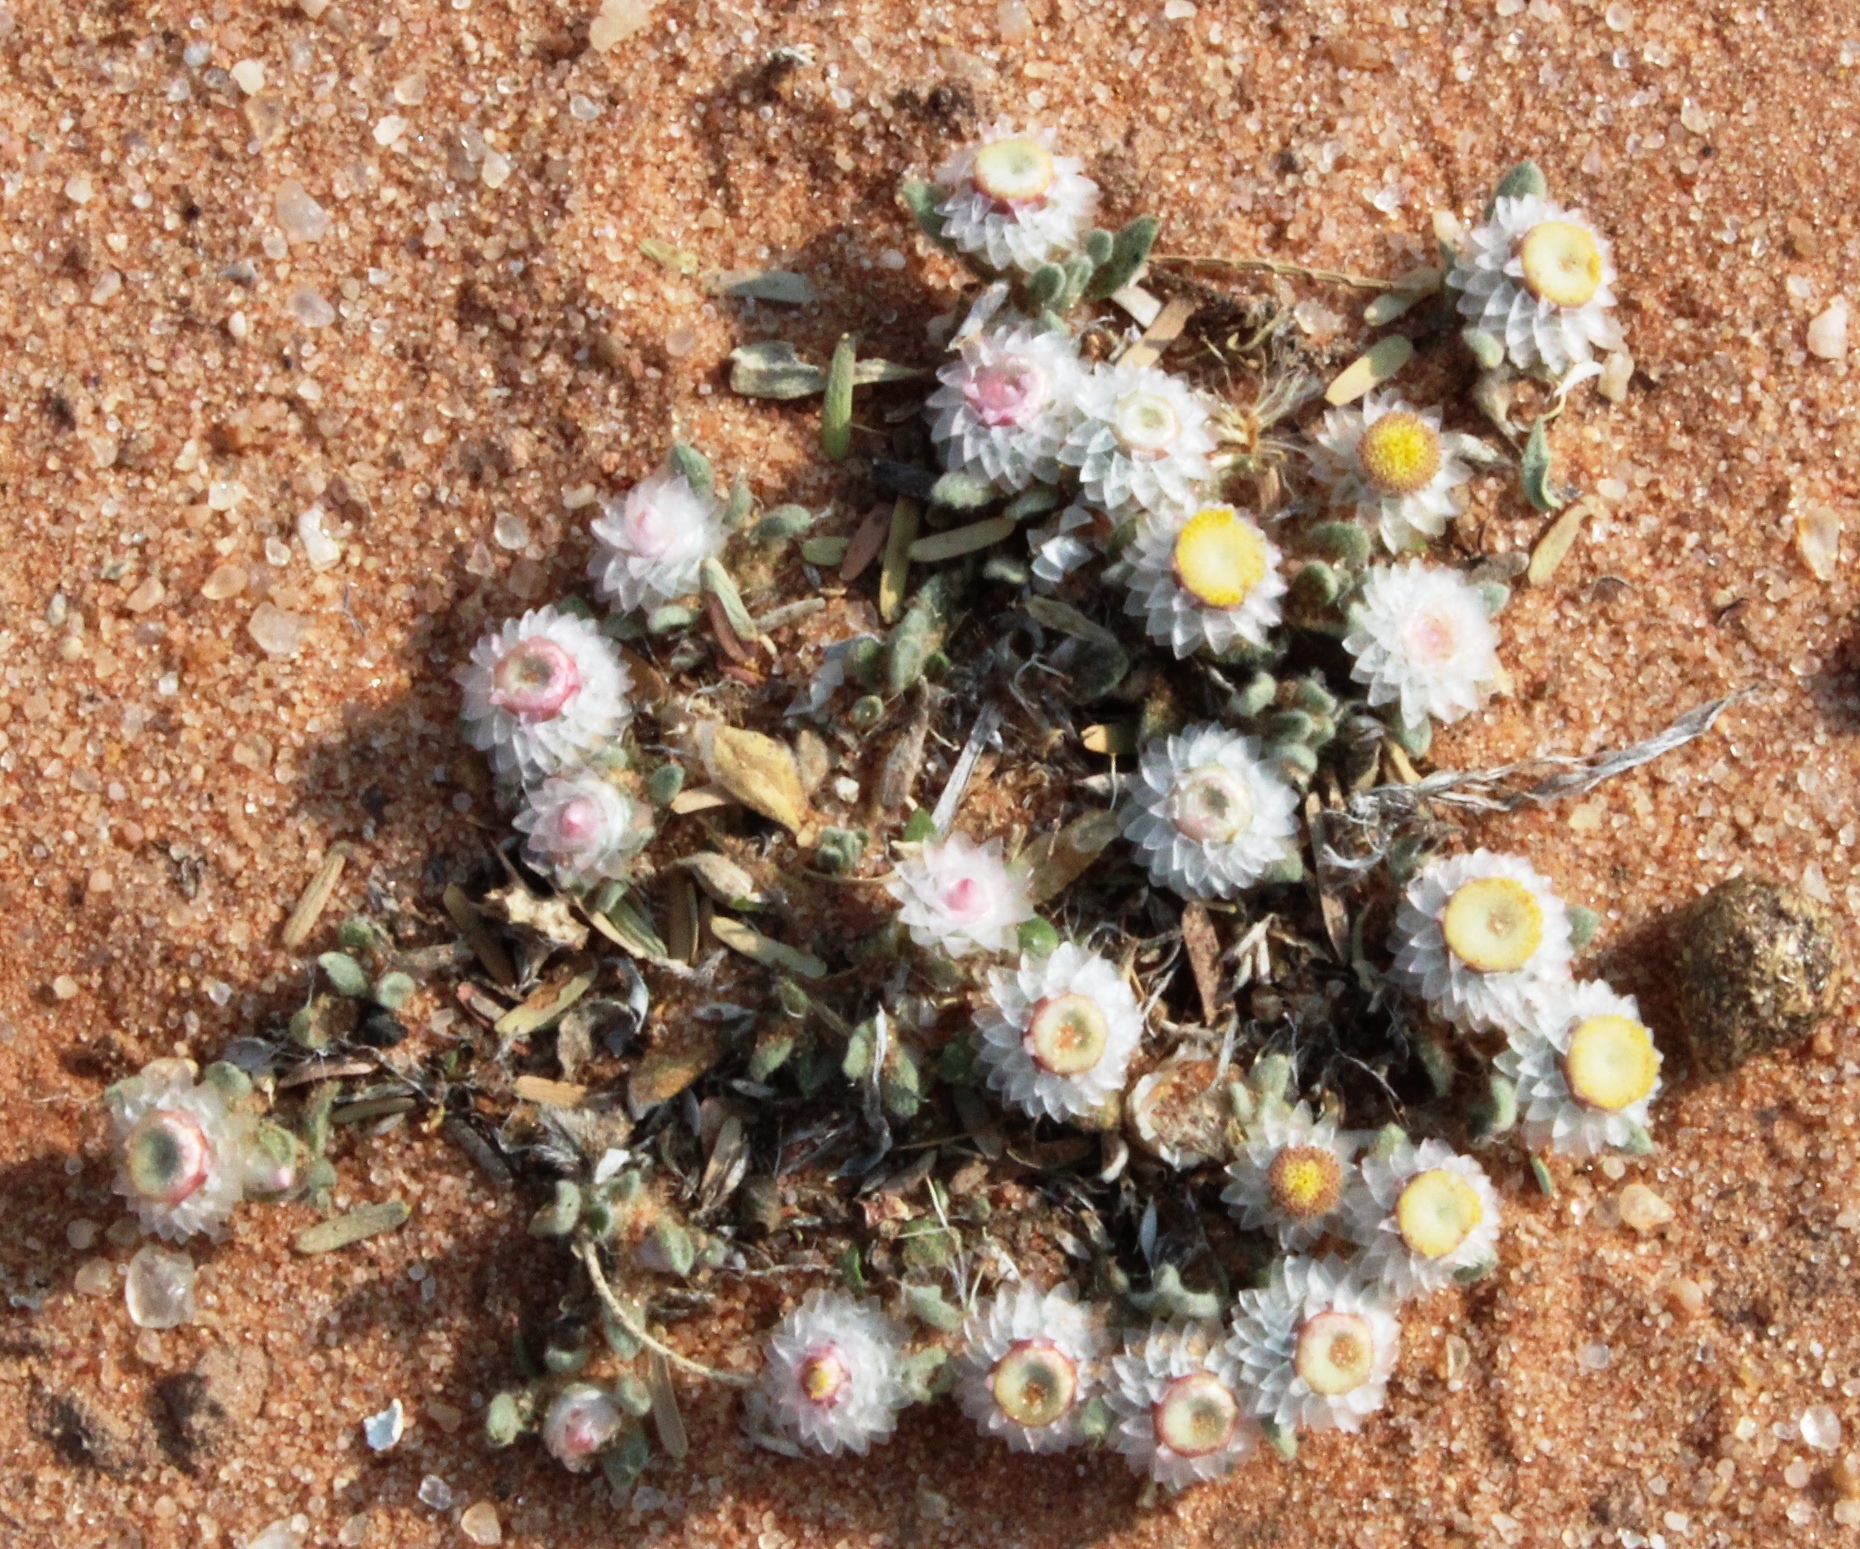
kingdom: Plantae
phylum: Tracheophyta
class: Magnoliopsida
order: Asterales
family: Asteraceae
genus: Helichrysum
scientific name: Helichrysum argyrosphaerum
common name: Wild everlasting
